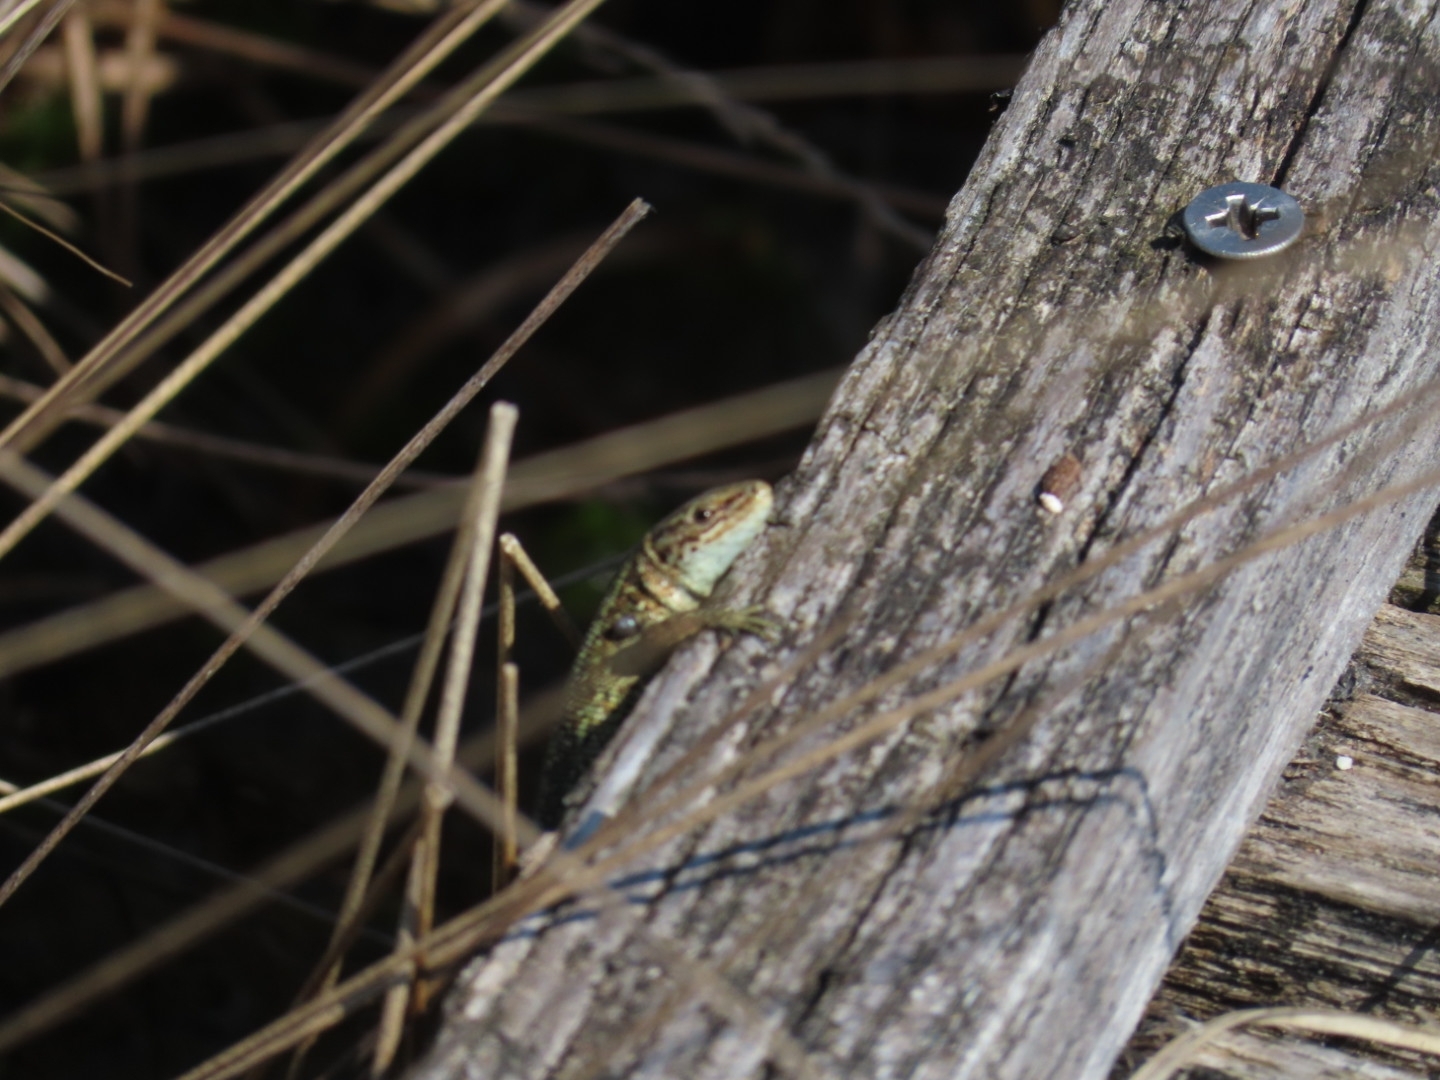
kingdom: Animalia
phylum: Chordata
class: Squamata
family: Lacertidae
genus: Zootoca
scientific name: Zootoca vivipara
